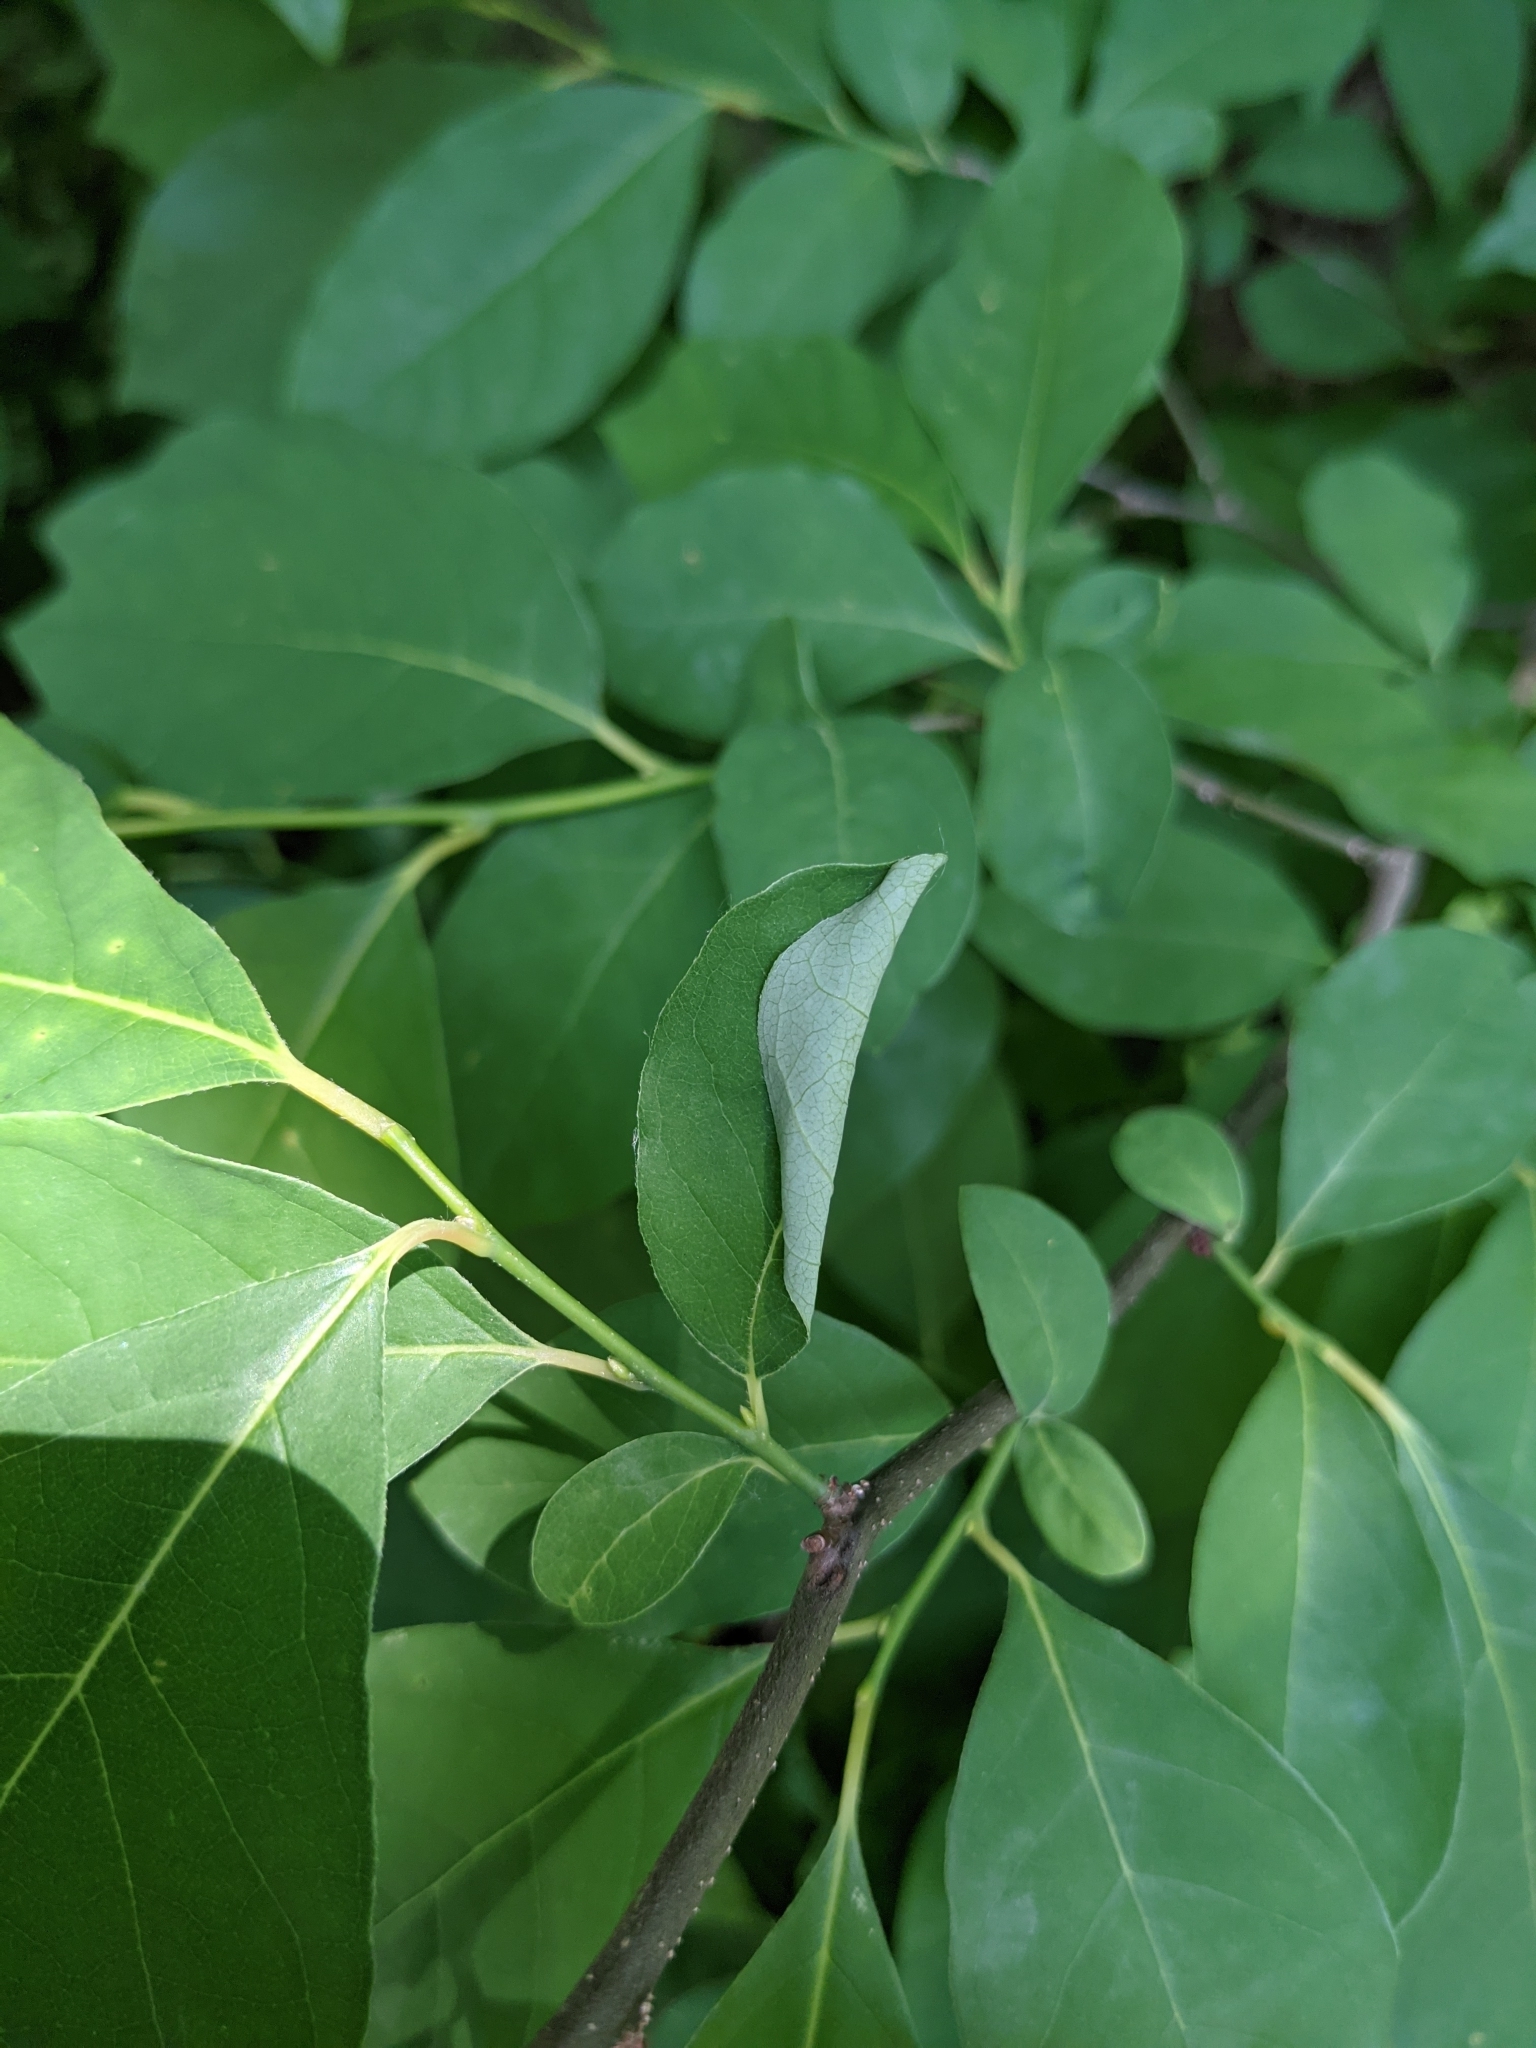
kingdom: Animalia
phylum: Arthropoda
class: Insecta
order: Lepidoptera
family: Papilionidae
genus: Papilio
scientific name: Papilio troilus
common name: Spicebush swallowtail
